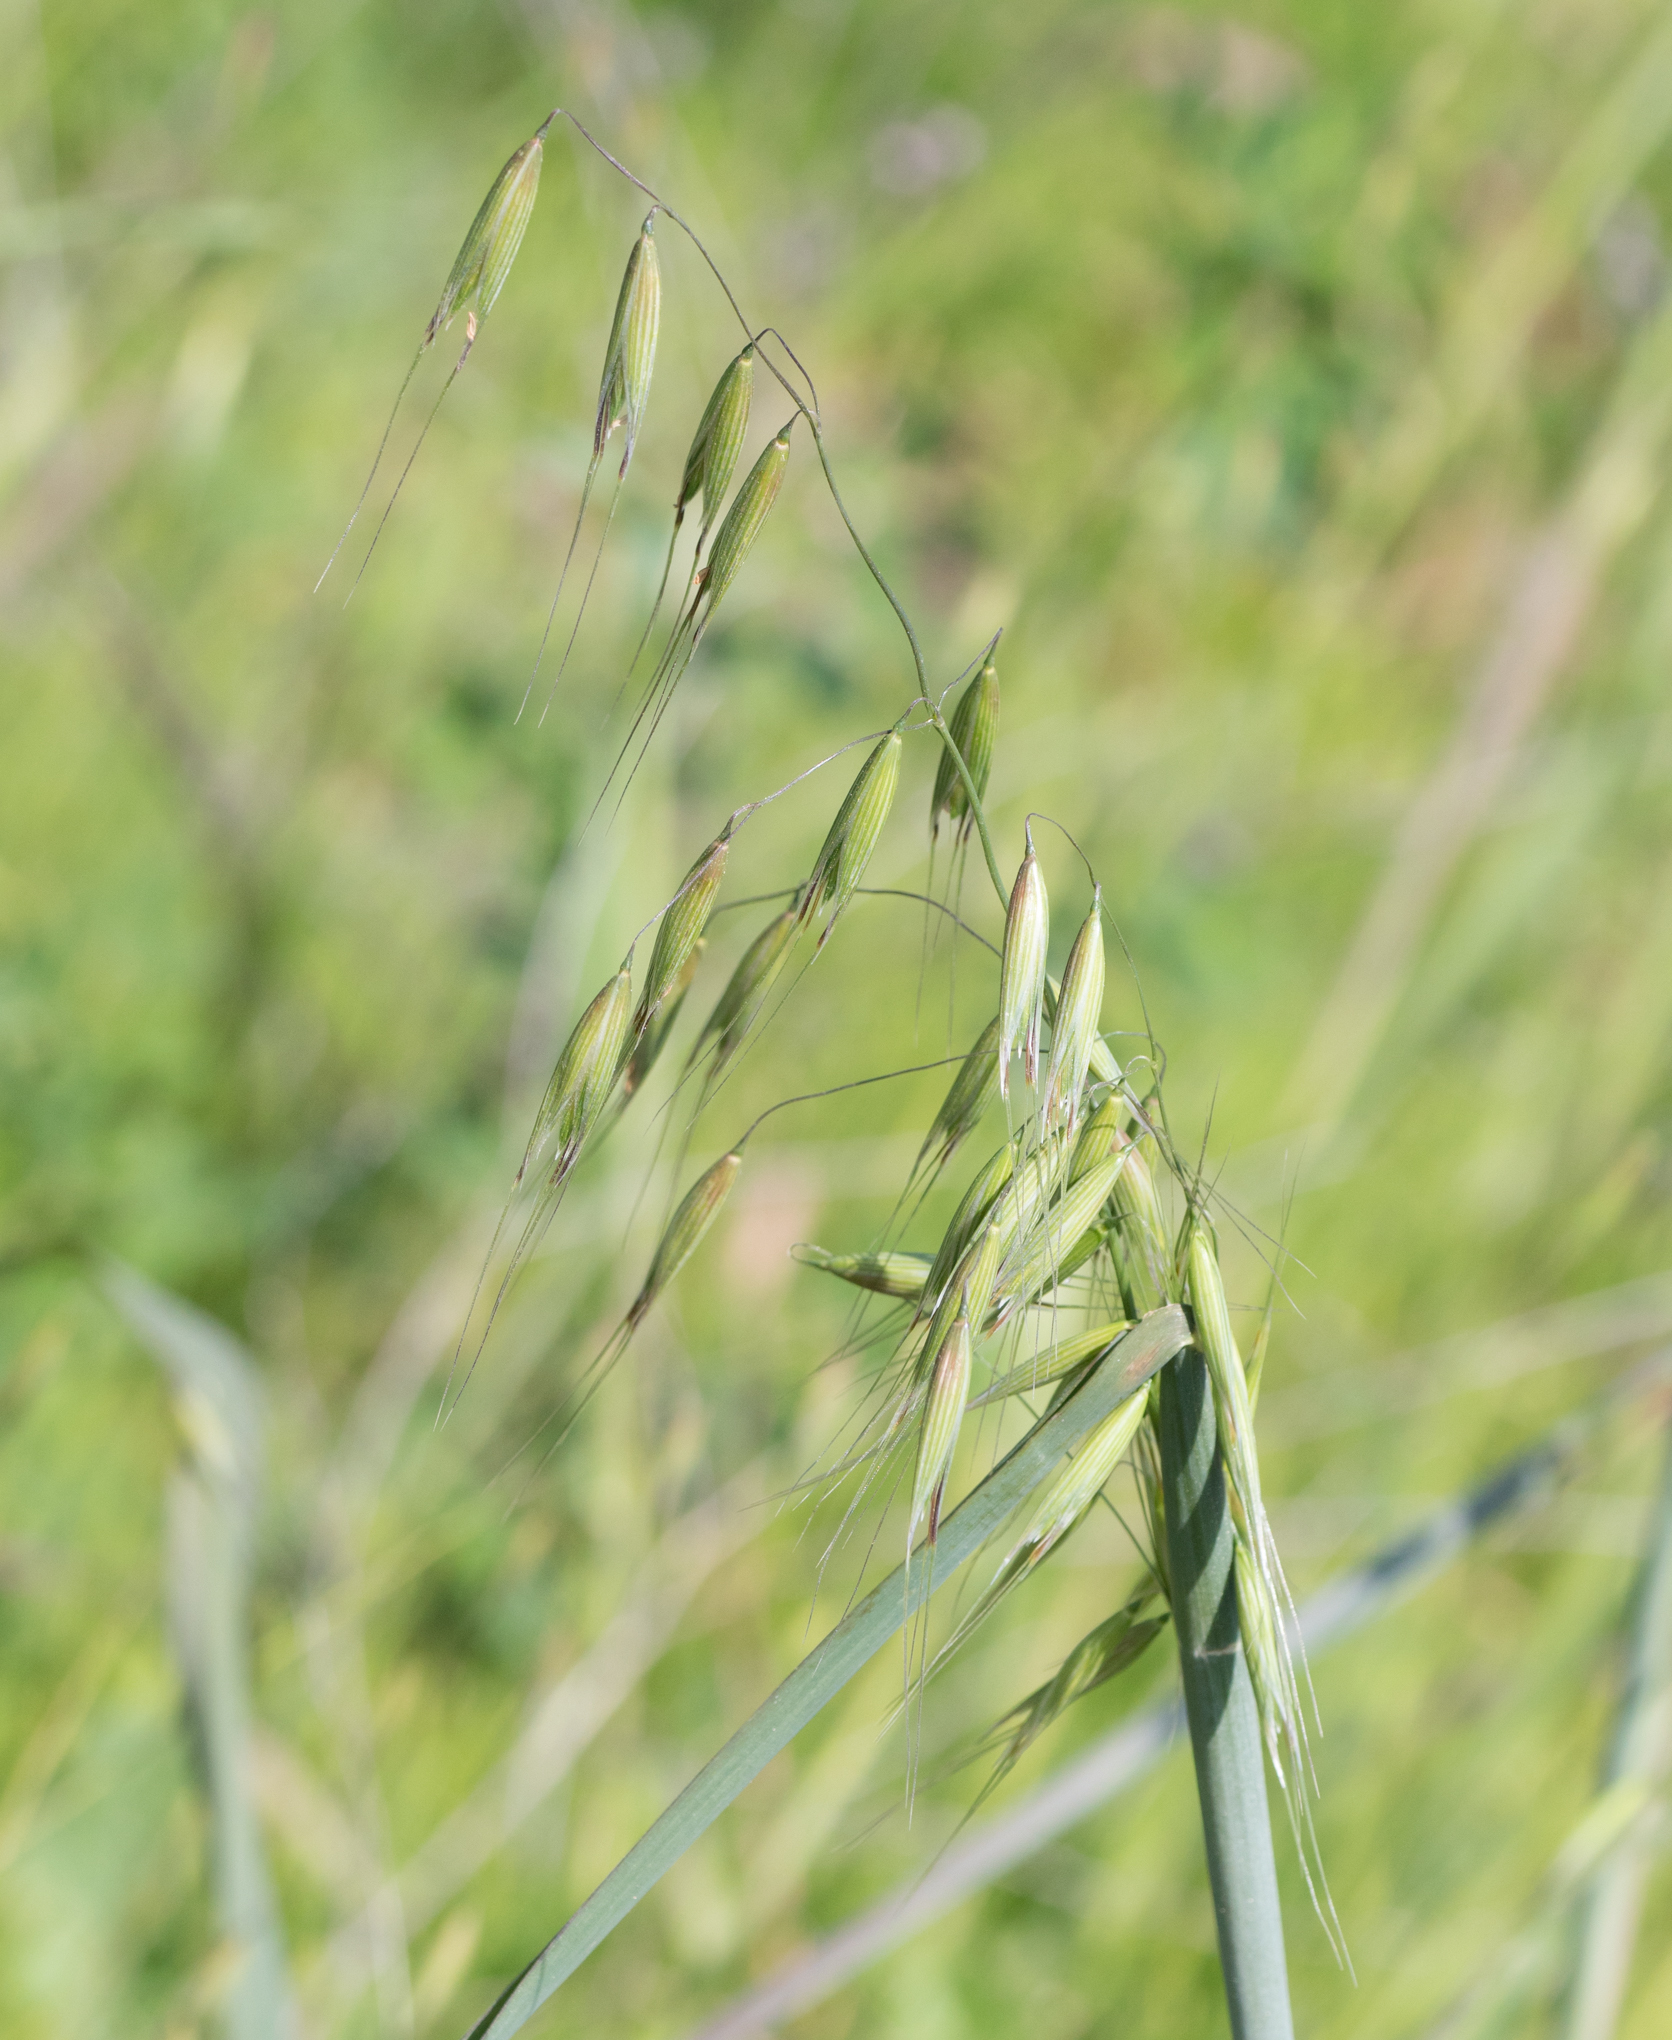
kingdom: Plantae
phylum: Tracheophyta
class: Liliopsida
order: Poales
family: Poaceae
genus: Avena
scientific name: Avena fatua
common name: Wild oat
